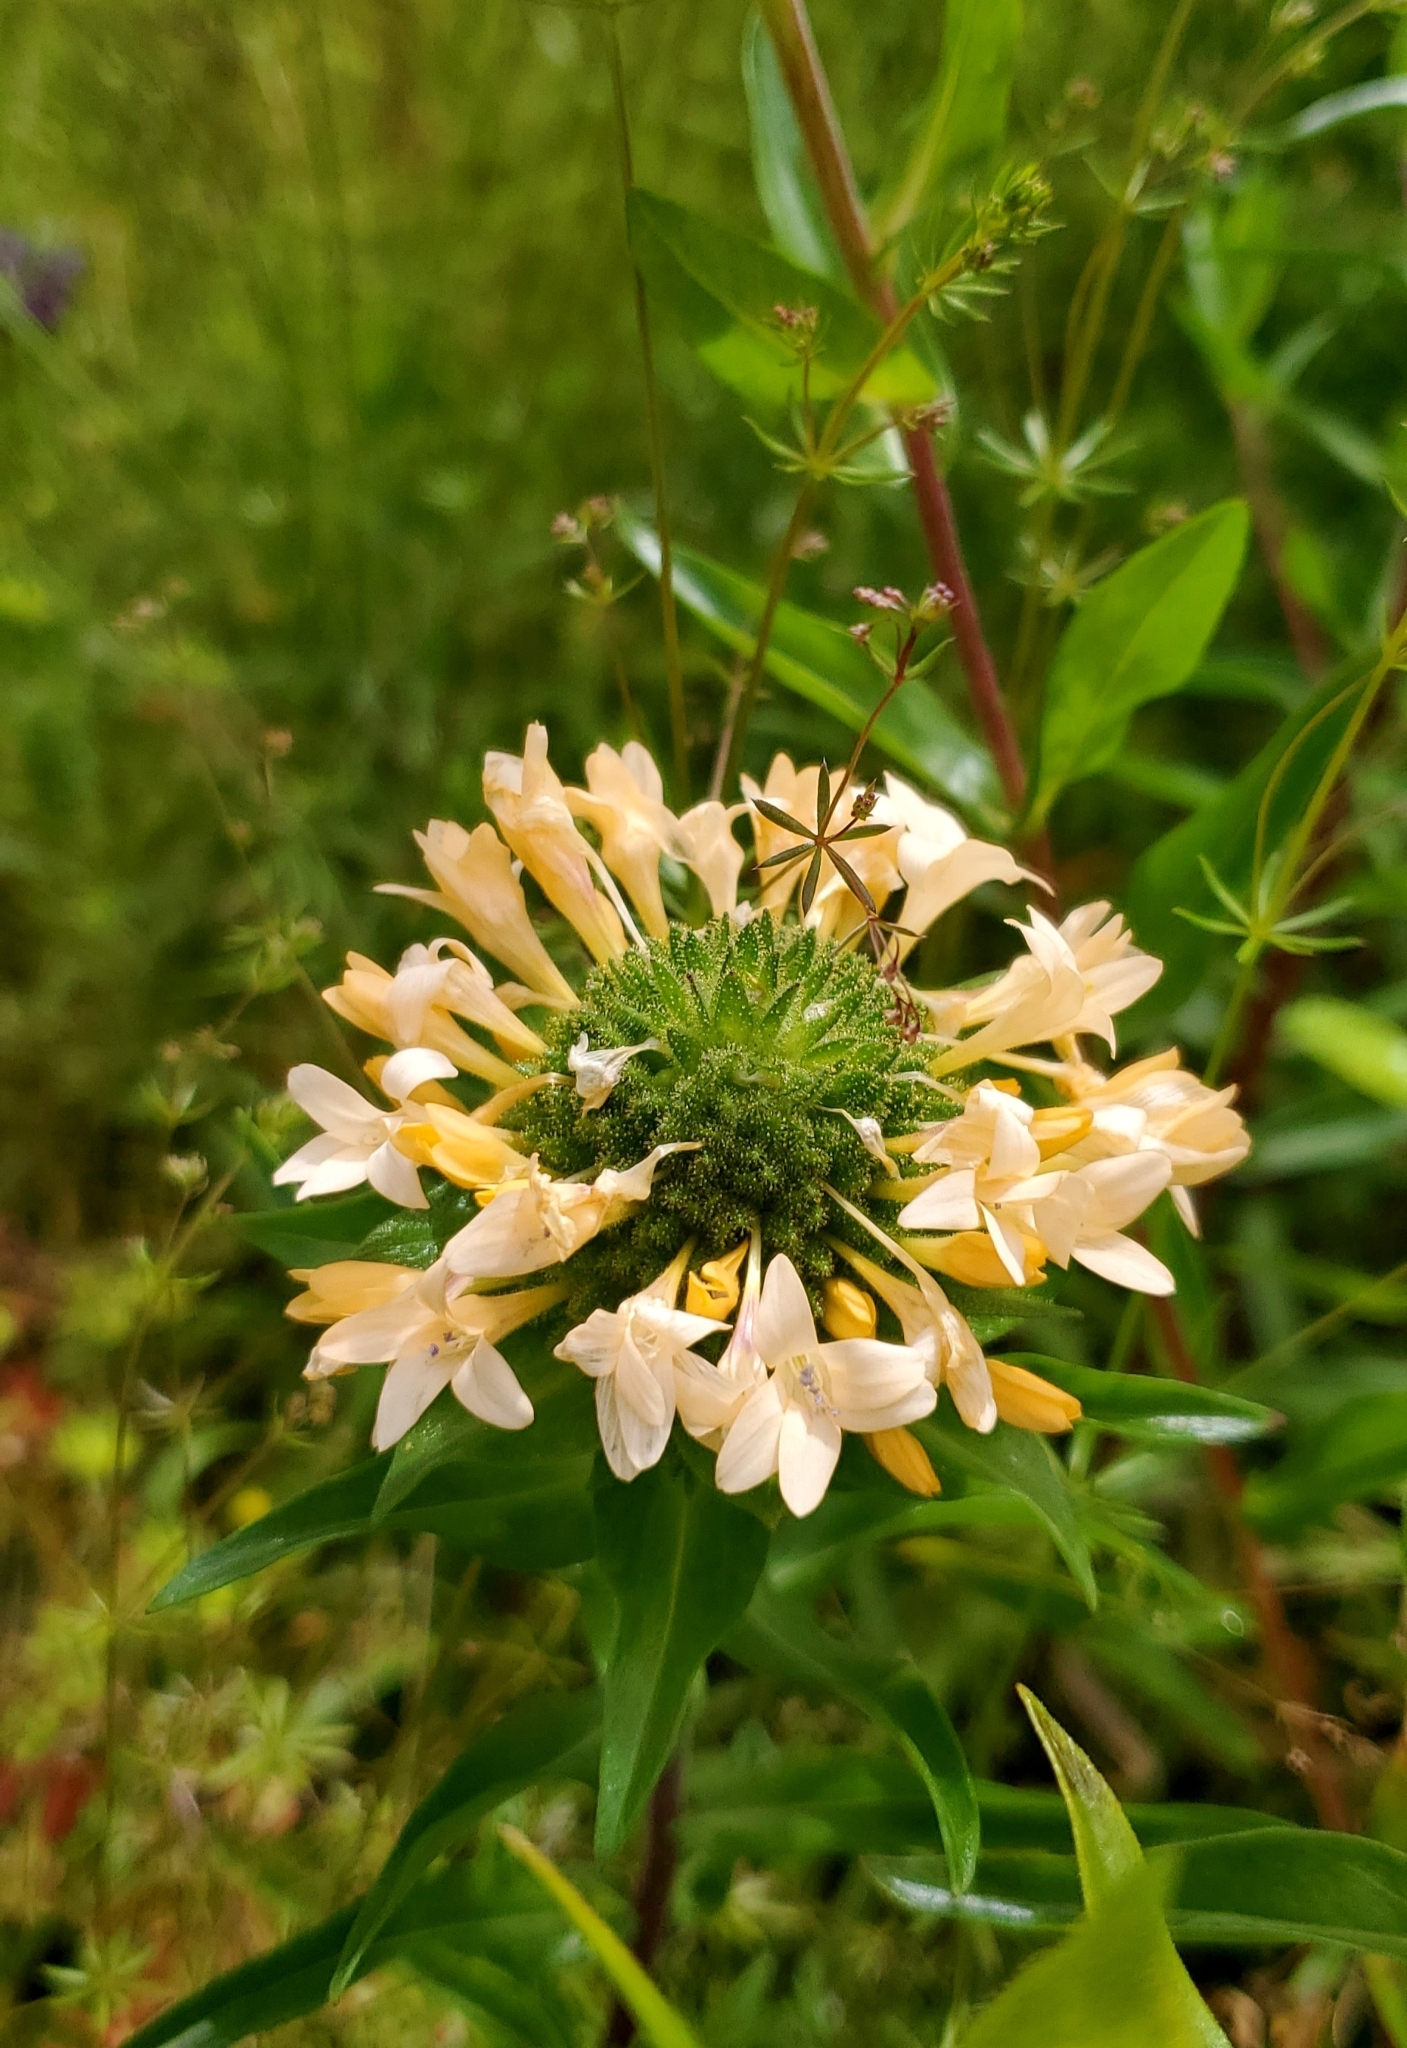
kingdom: Plantae
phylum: Tracheophyta
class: Magnoliopsida
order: Ericales
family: Polemoniaceae
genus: Collomia
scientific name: Collomia grandiflora
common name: California strawflower
